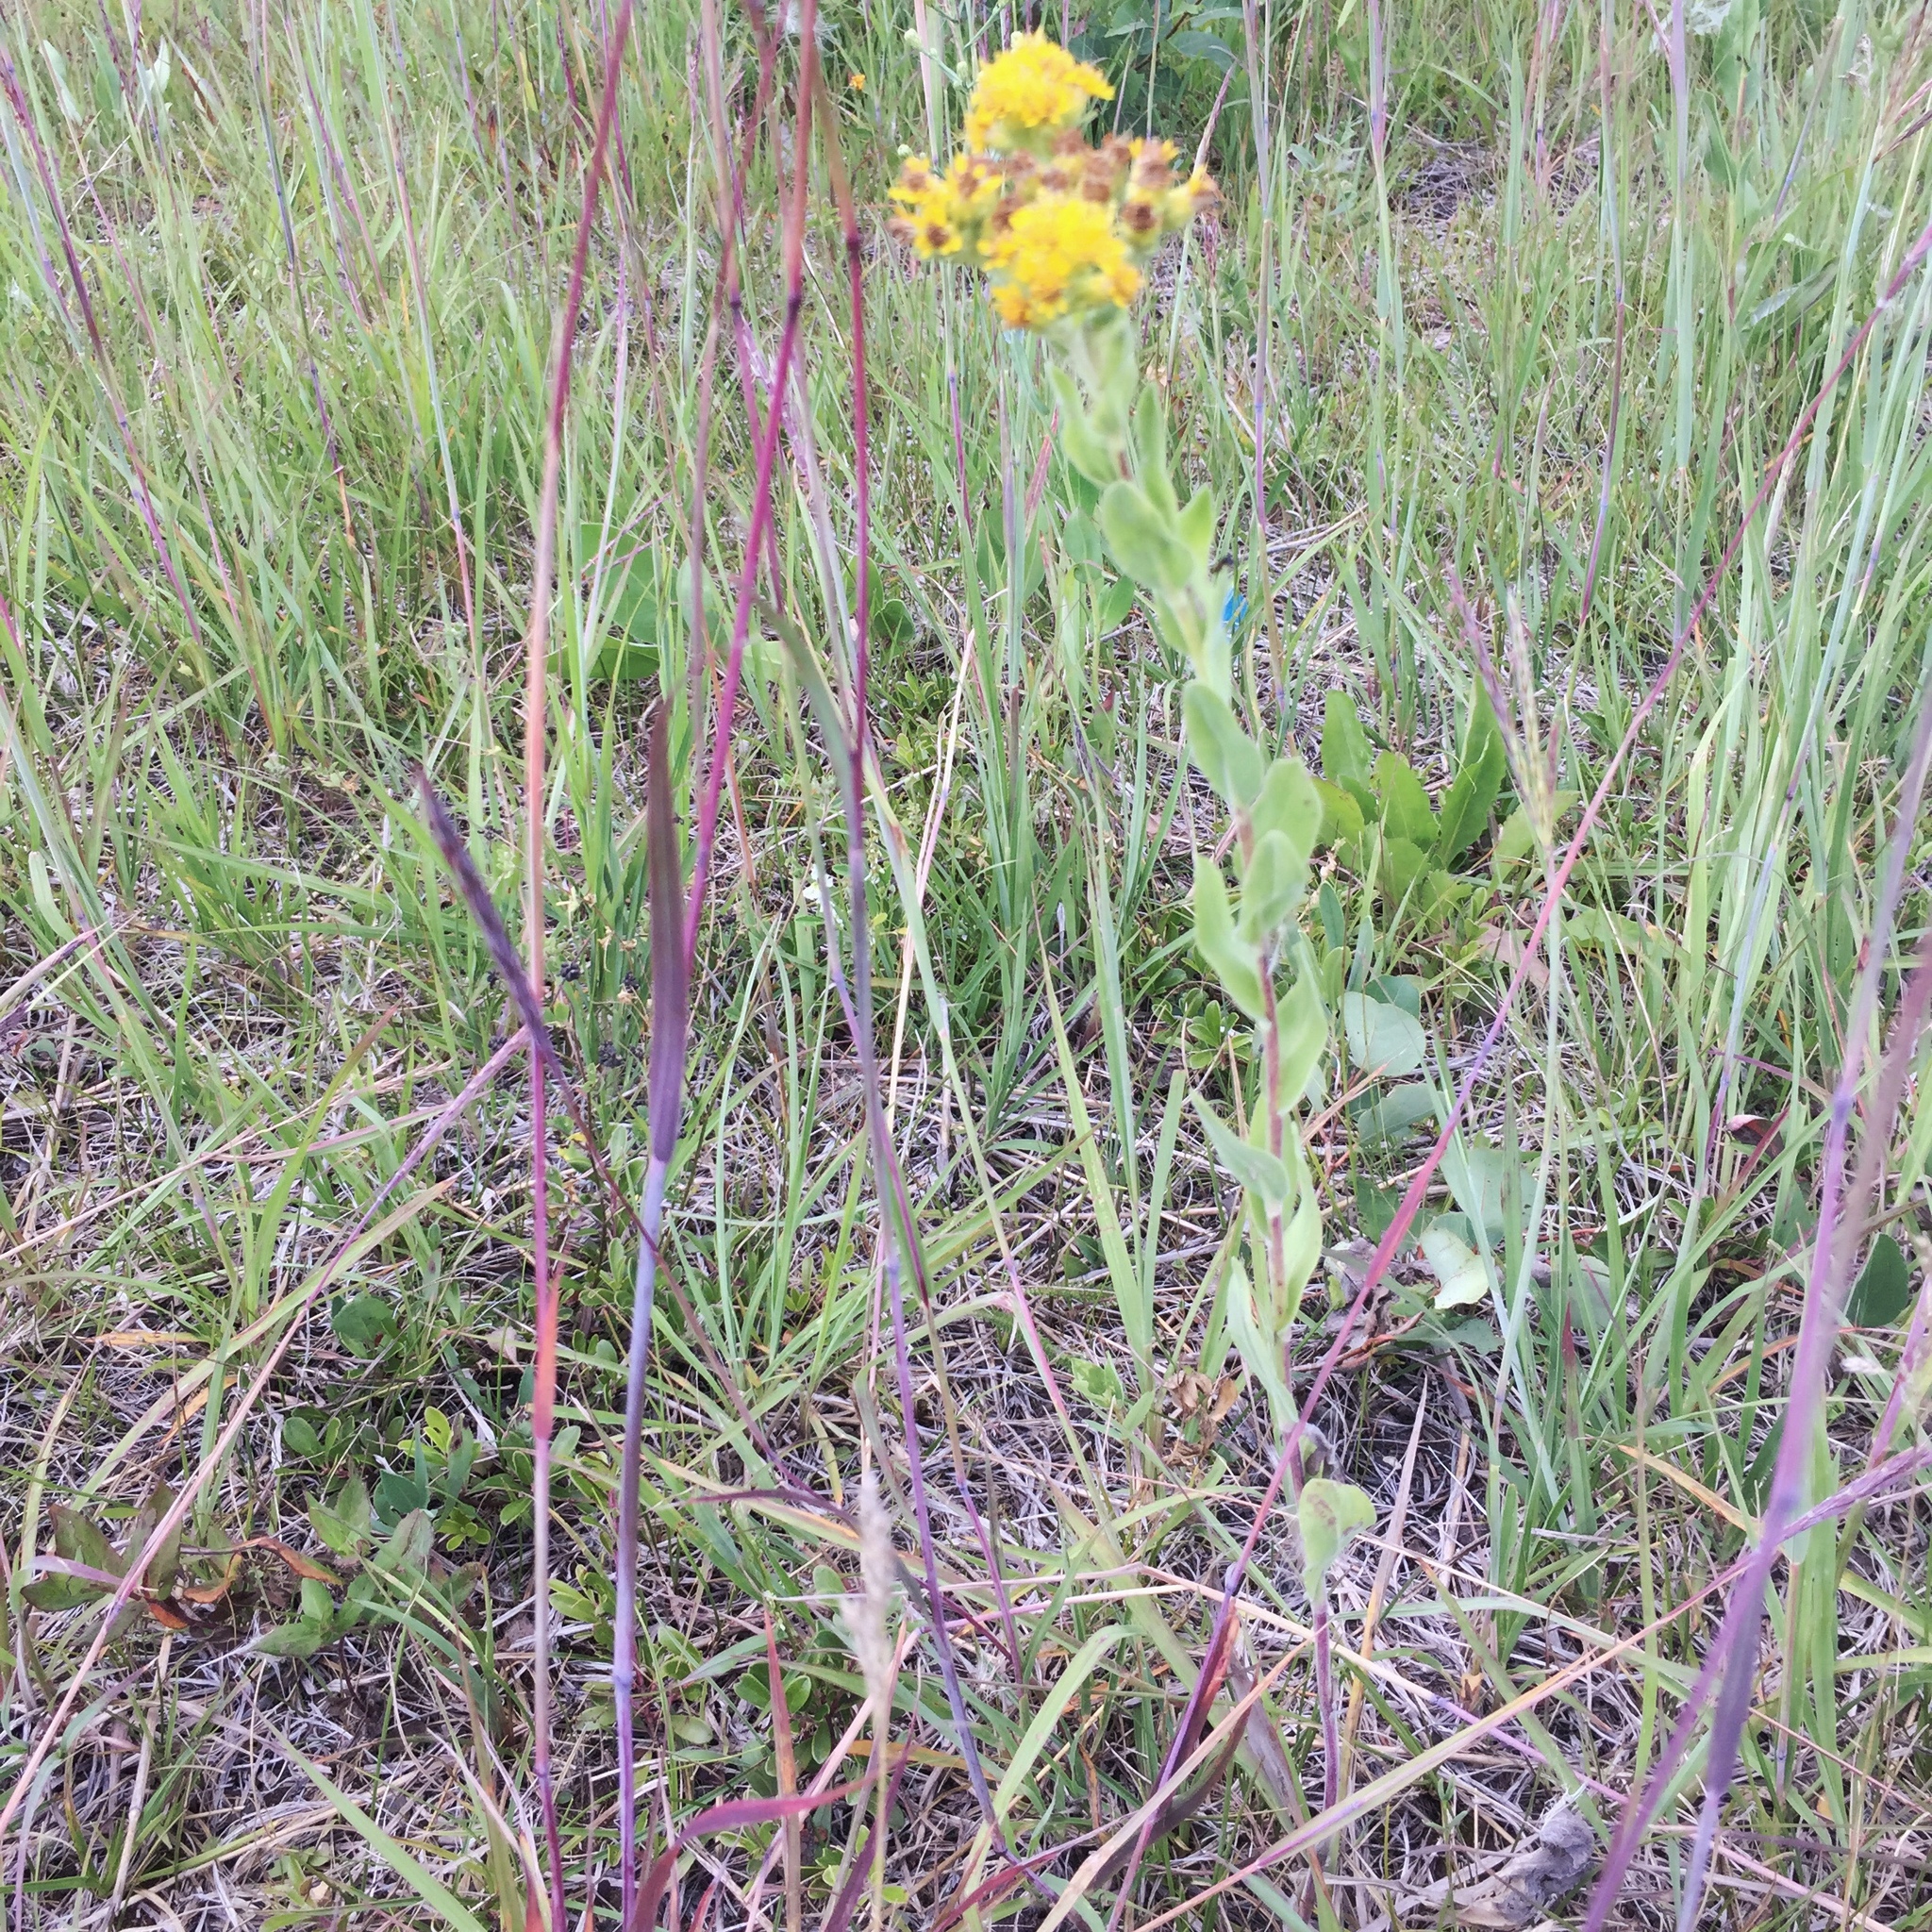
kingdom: Plantae
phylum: Tracheophyta
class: Magnoliopsida
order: Asterales
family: Asteraceae
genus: Solidago
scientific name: Solidago rigida
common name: Rigid goldenrod
